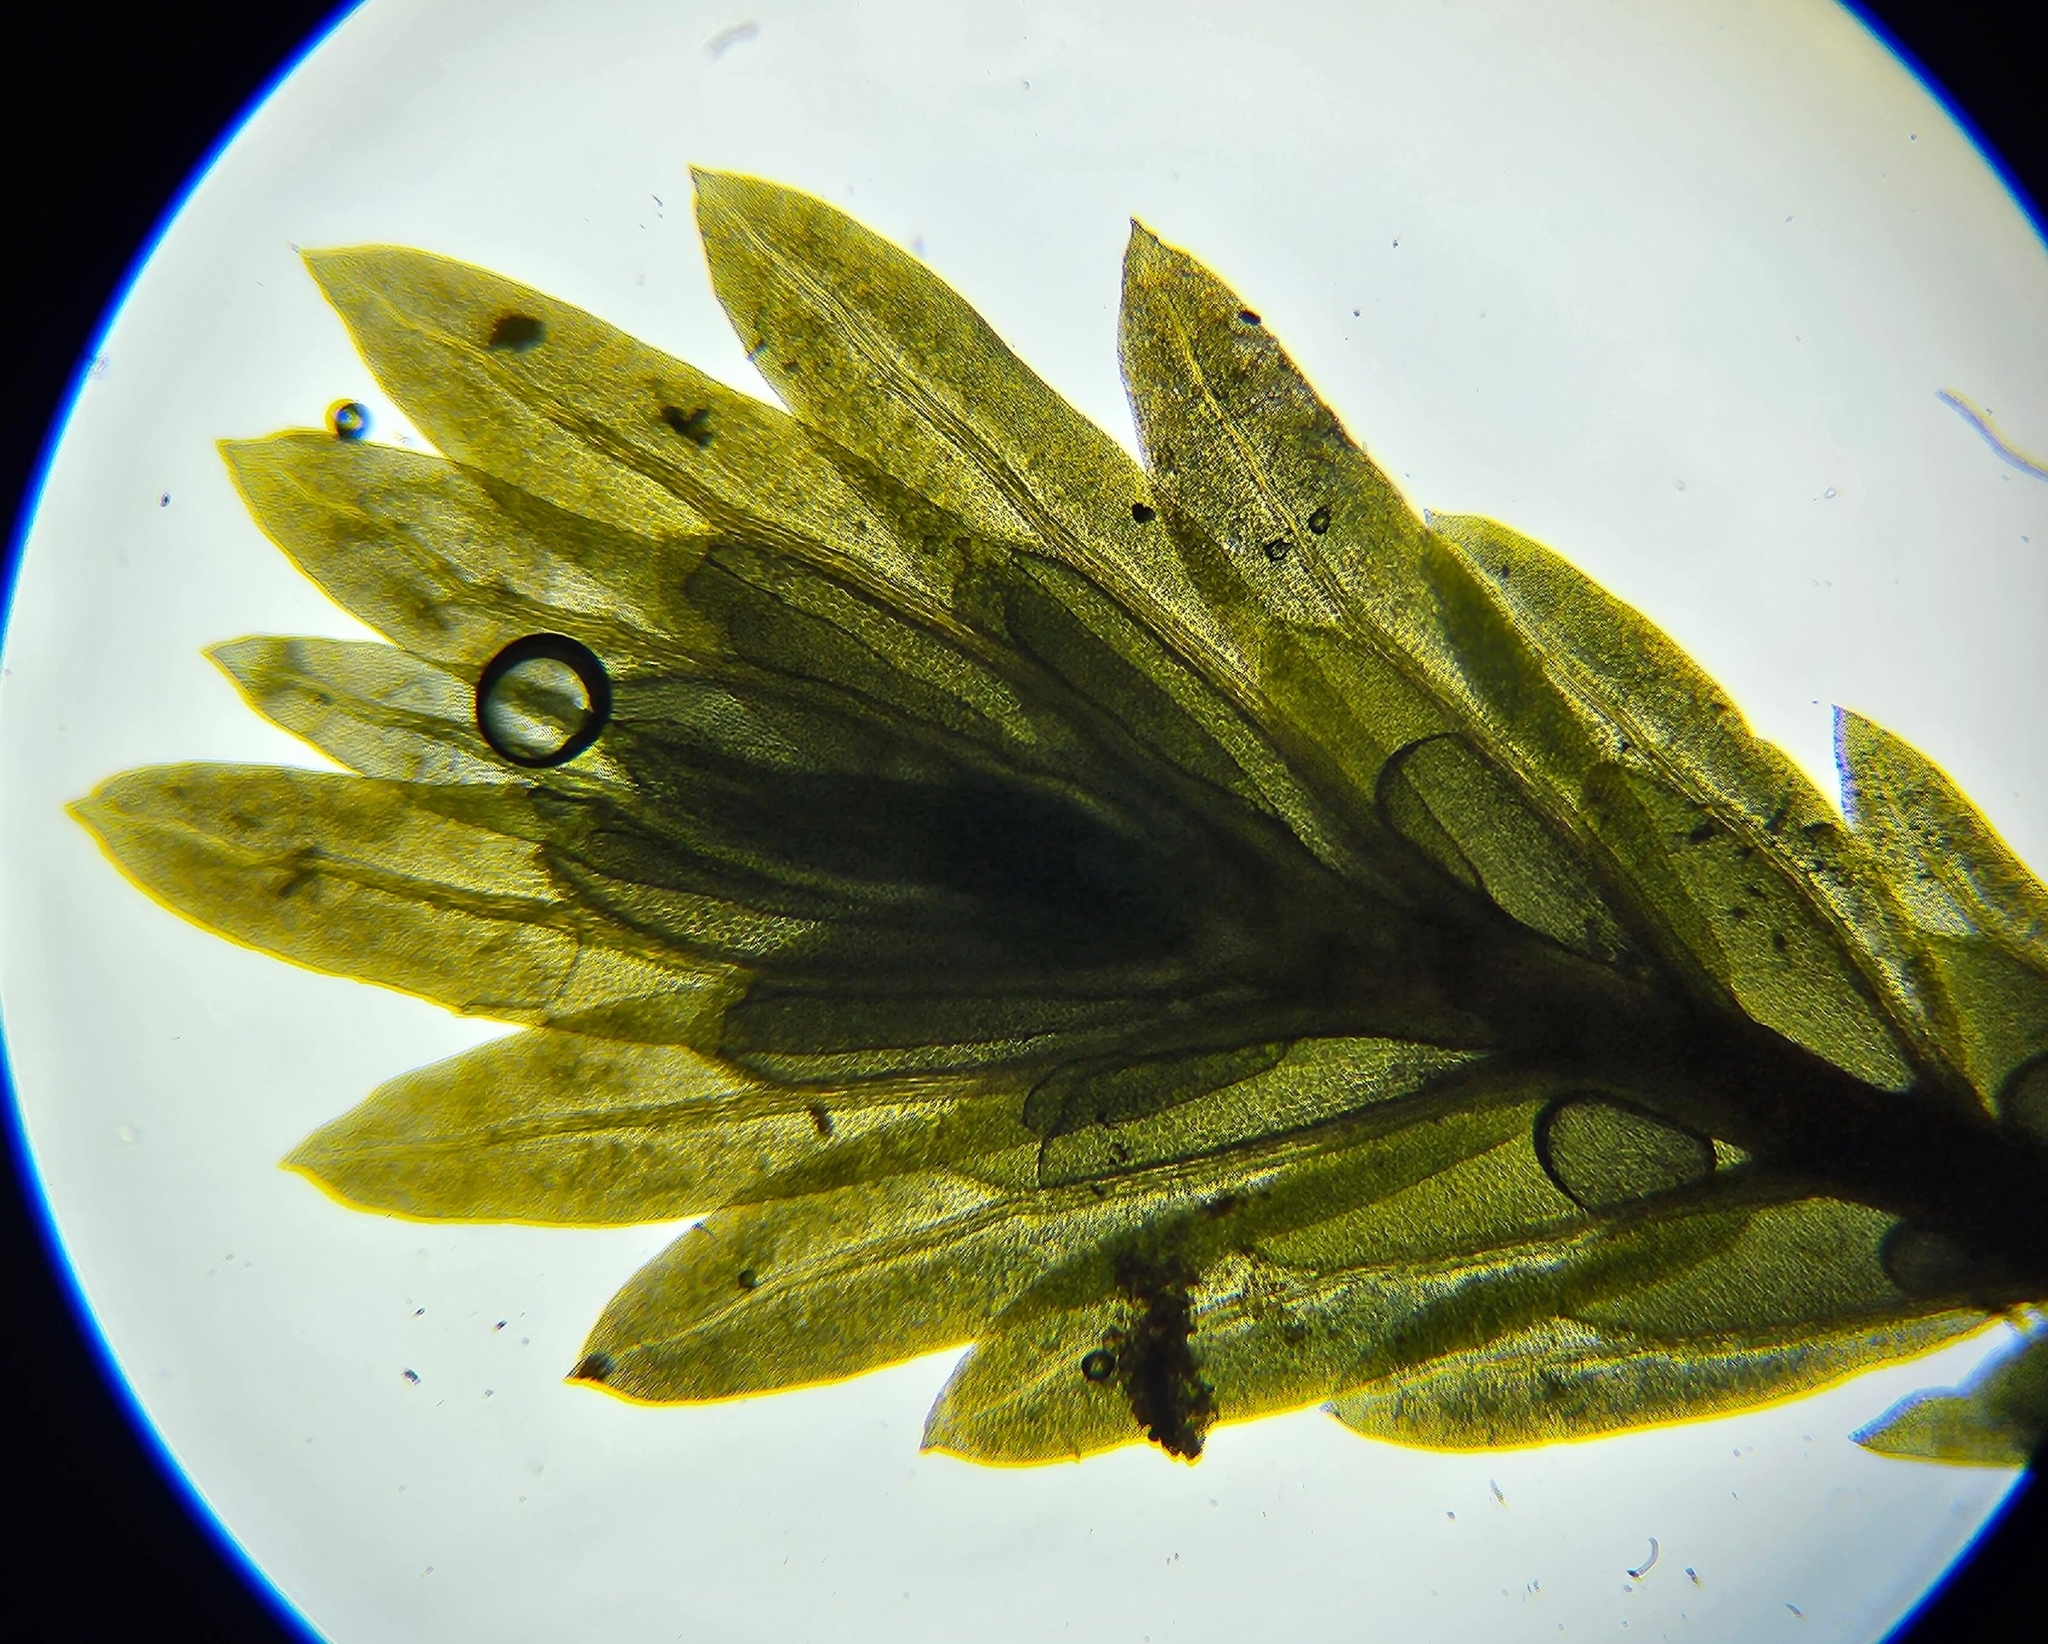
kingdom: Plantae
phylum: Bryophyta
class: Bryopsida
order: Dicranales
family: Fissidentaceae
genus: Fissidens
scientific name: Fissidens osmundioides
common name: Osmund fissidens moss
